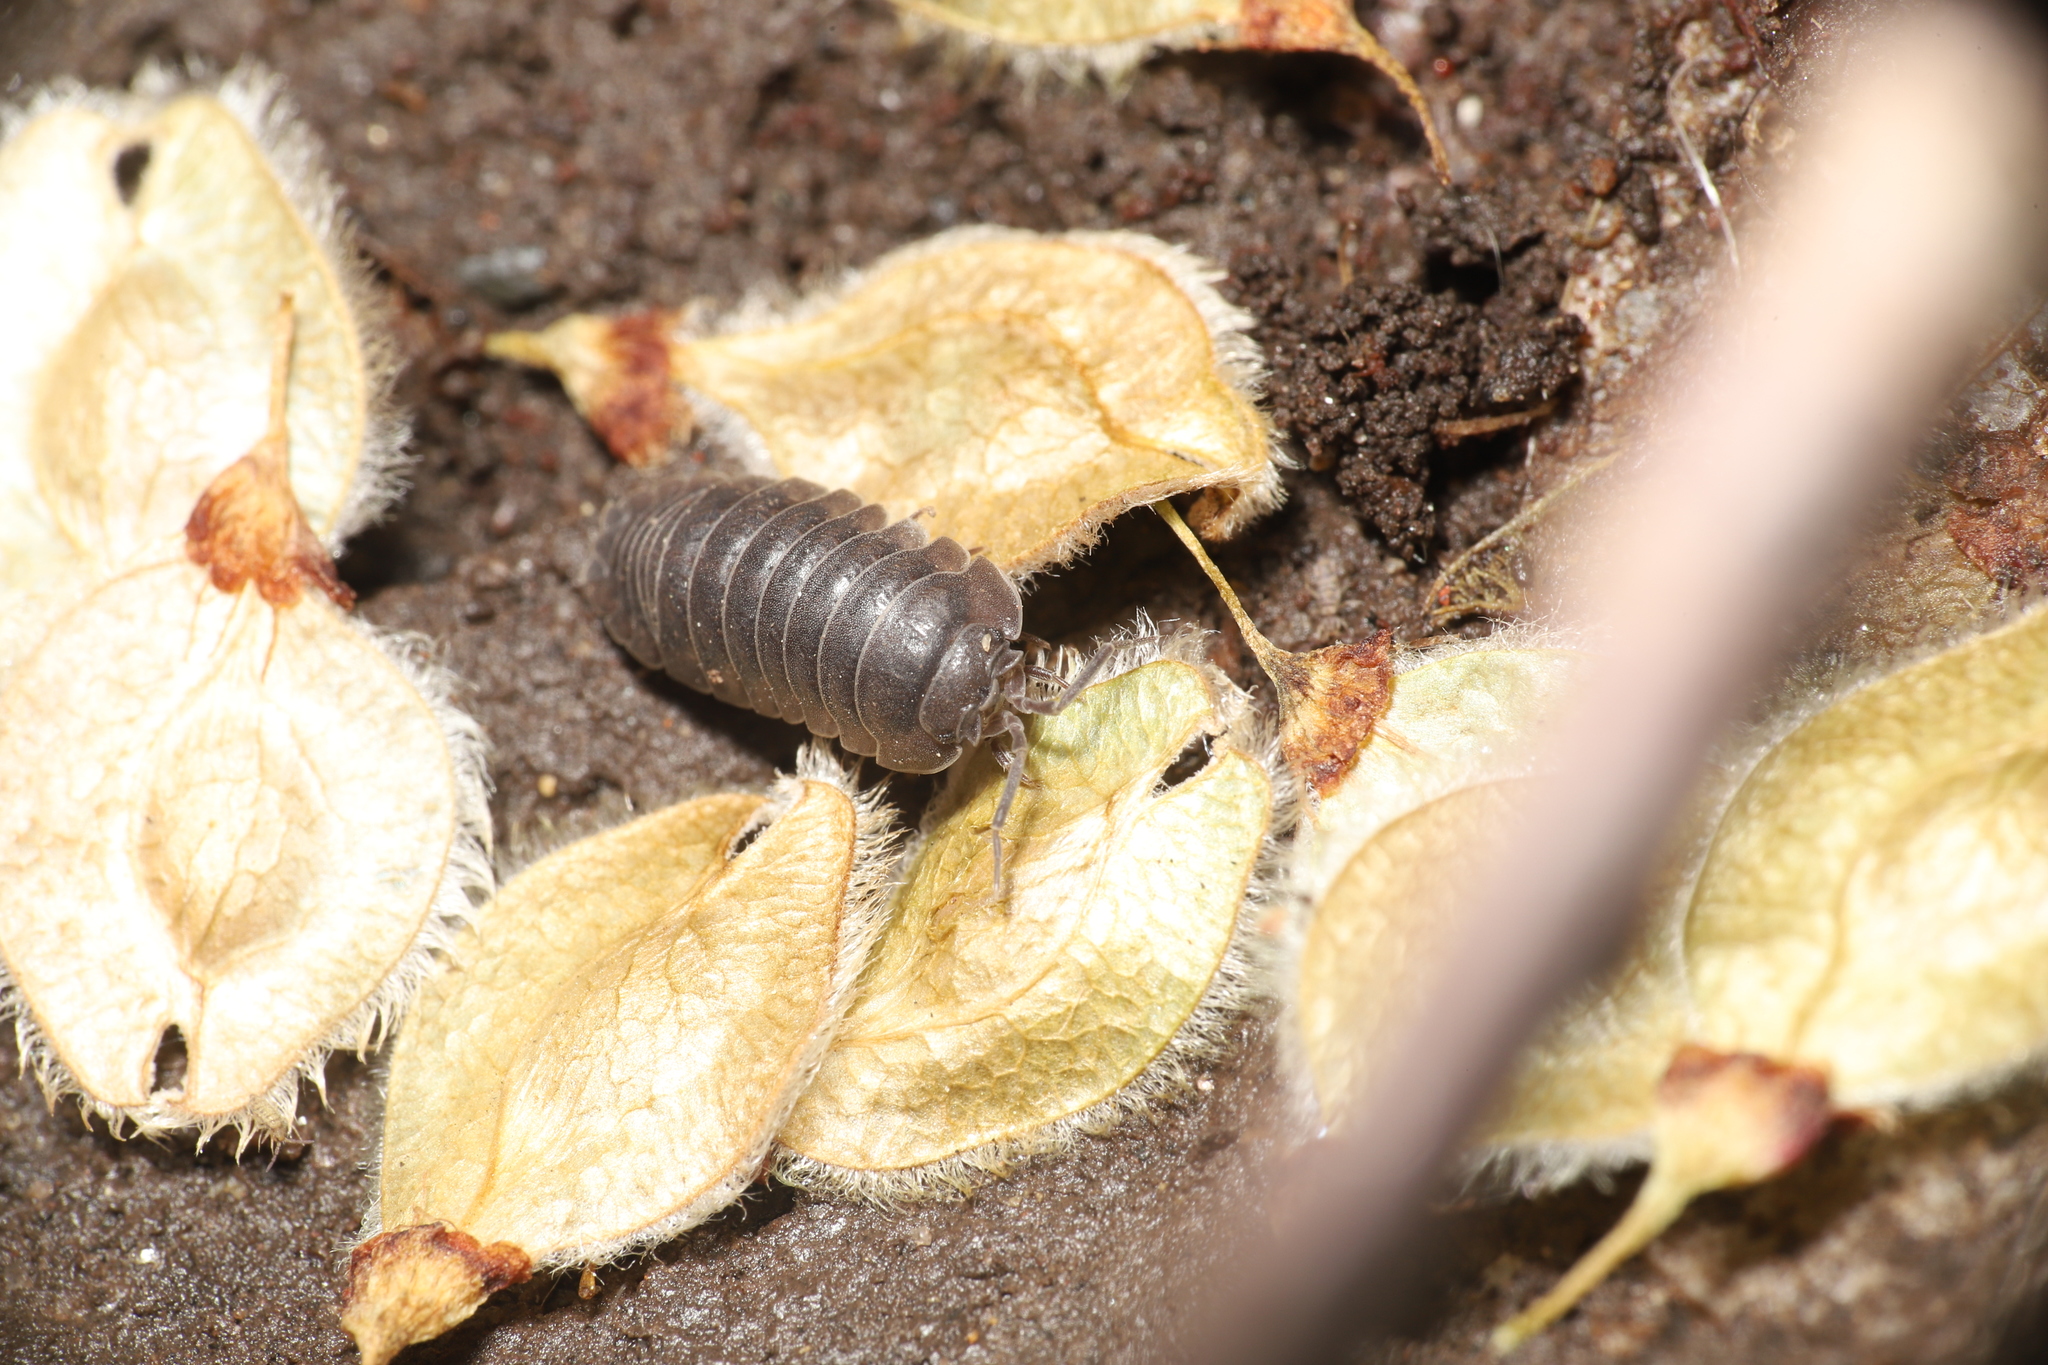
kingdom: Animalia
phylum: Arthropoda
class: Malacostraca
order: Isopoda
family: Armadillidiidae
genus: Armadillidium
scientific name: Armadillidium nasatum
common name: Isopod
